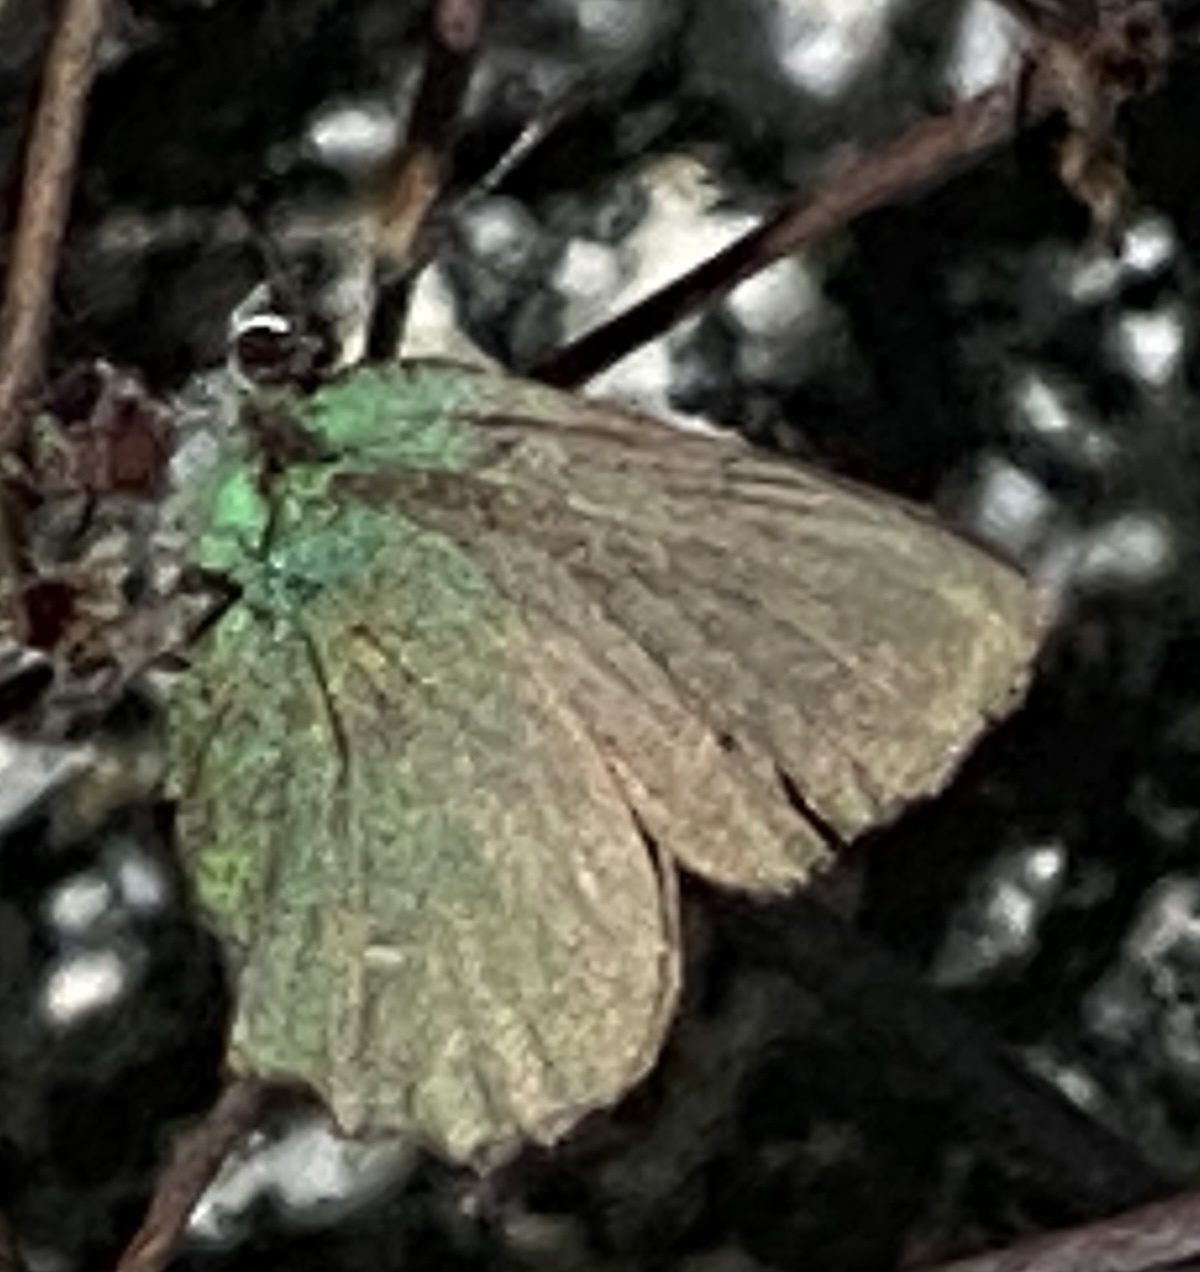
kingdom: Animalia
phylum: Arthropoda
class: Insecta
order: Lepidoptera
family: Lycaenidae
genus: Callophrys
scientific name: Callophrys dumetorum
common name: Bramble hairstreak
